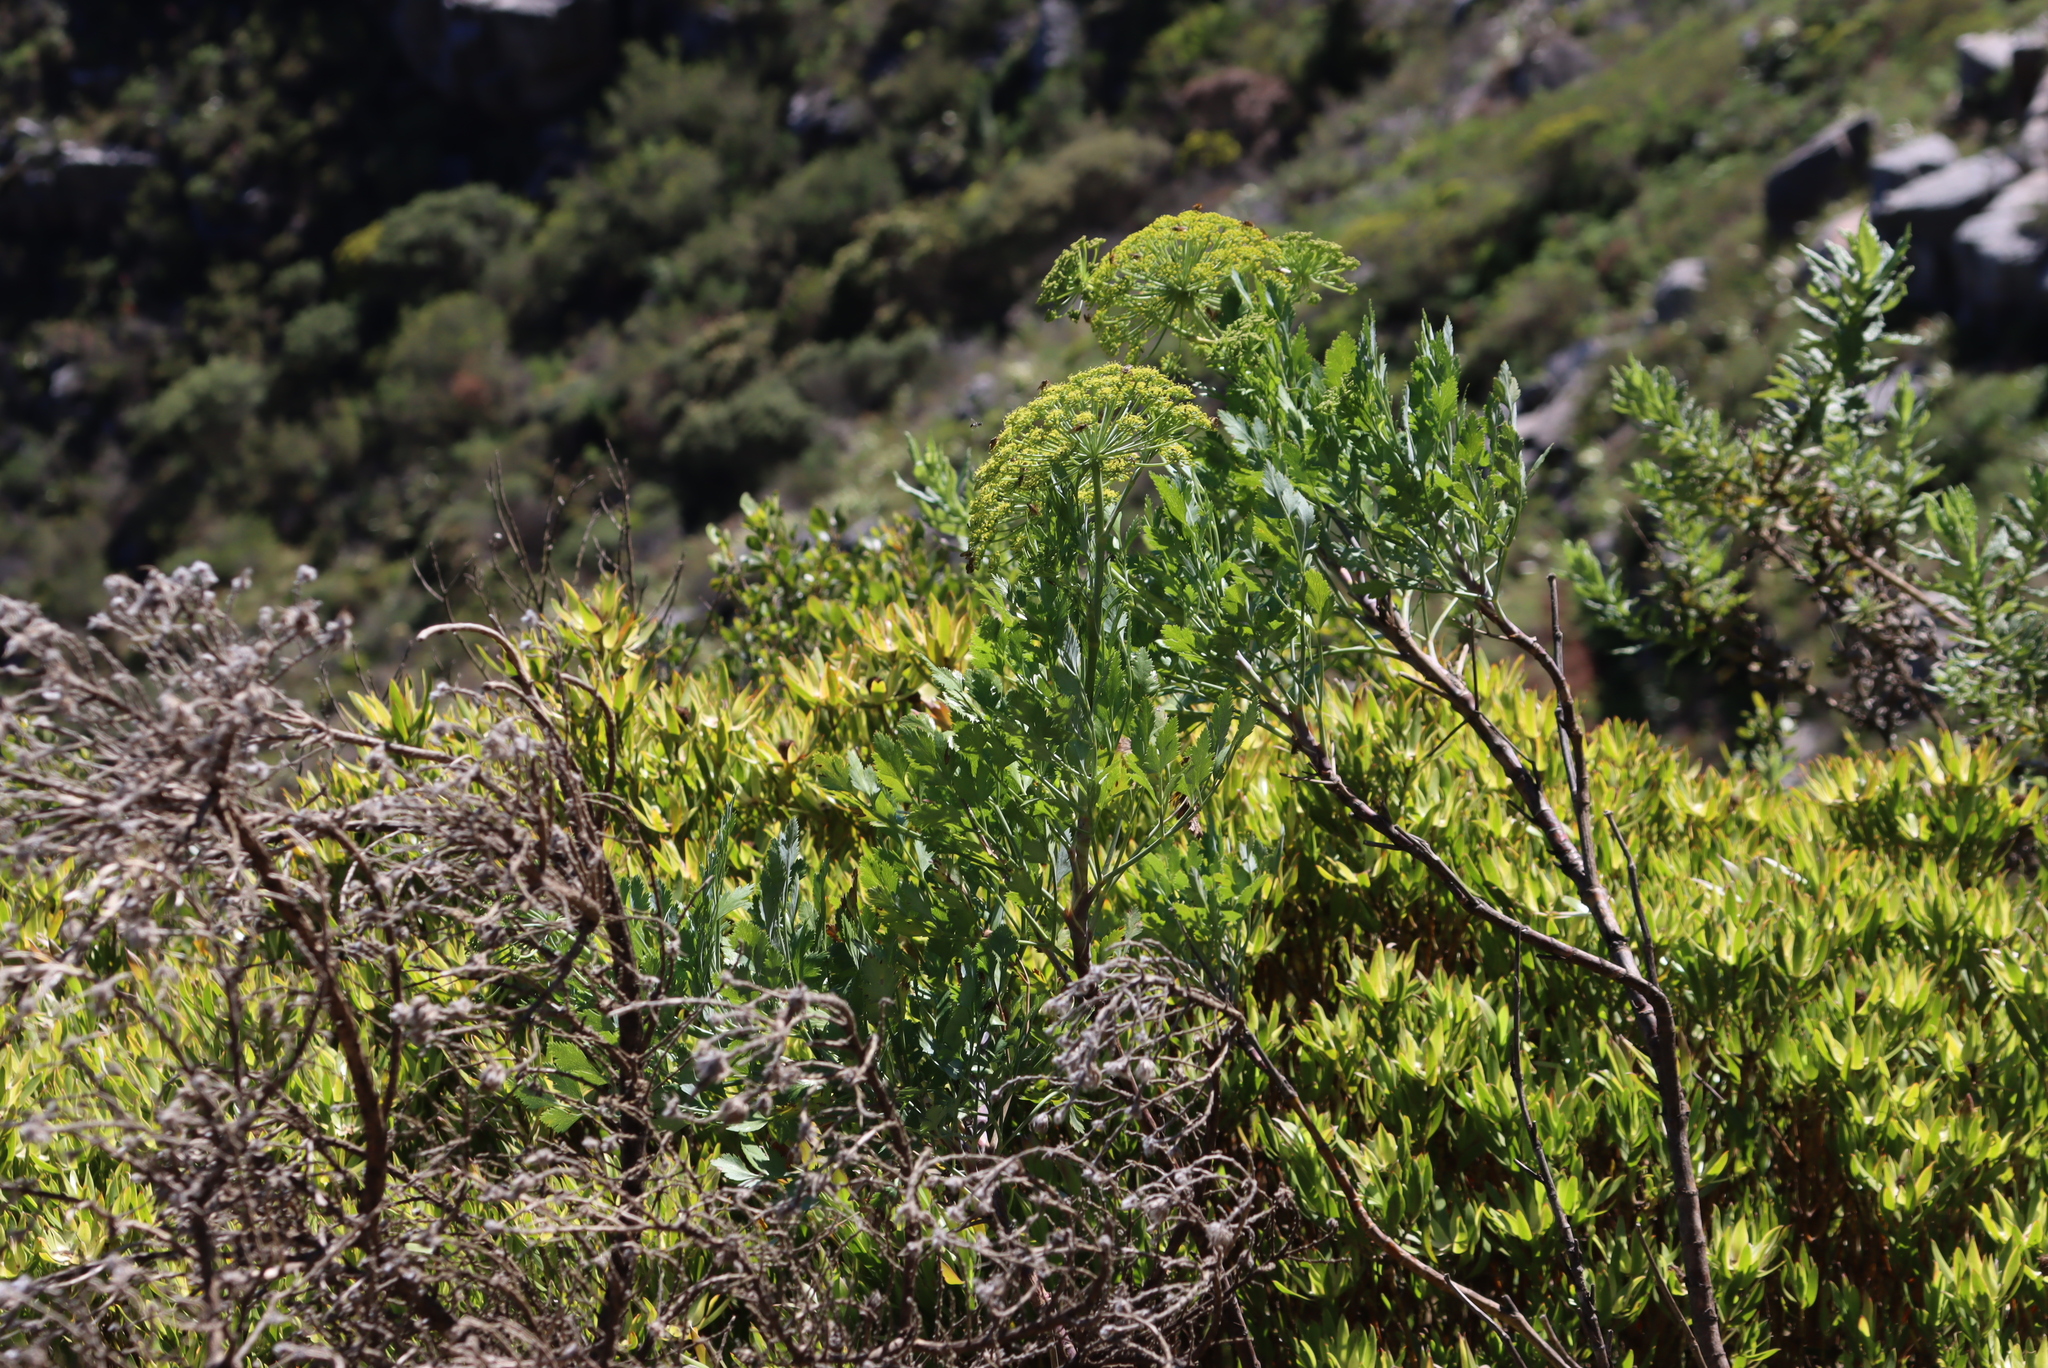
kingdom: Plantae
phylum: Tracheophyta
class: Magnoliopsida
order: Apiales
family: Apiaceae
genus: Notobubon
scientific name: Notobubon galbanum
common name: Blisterbush
